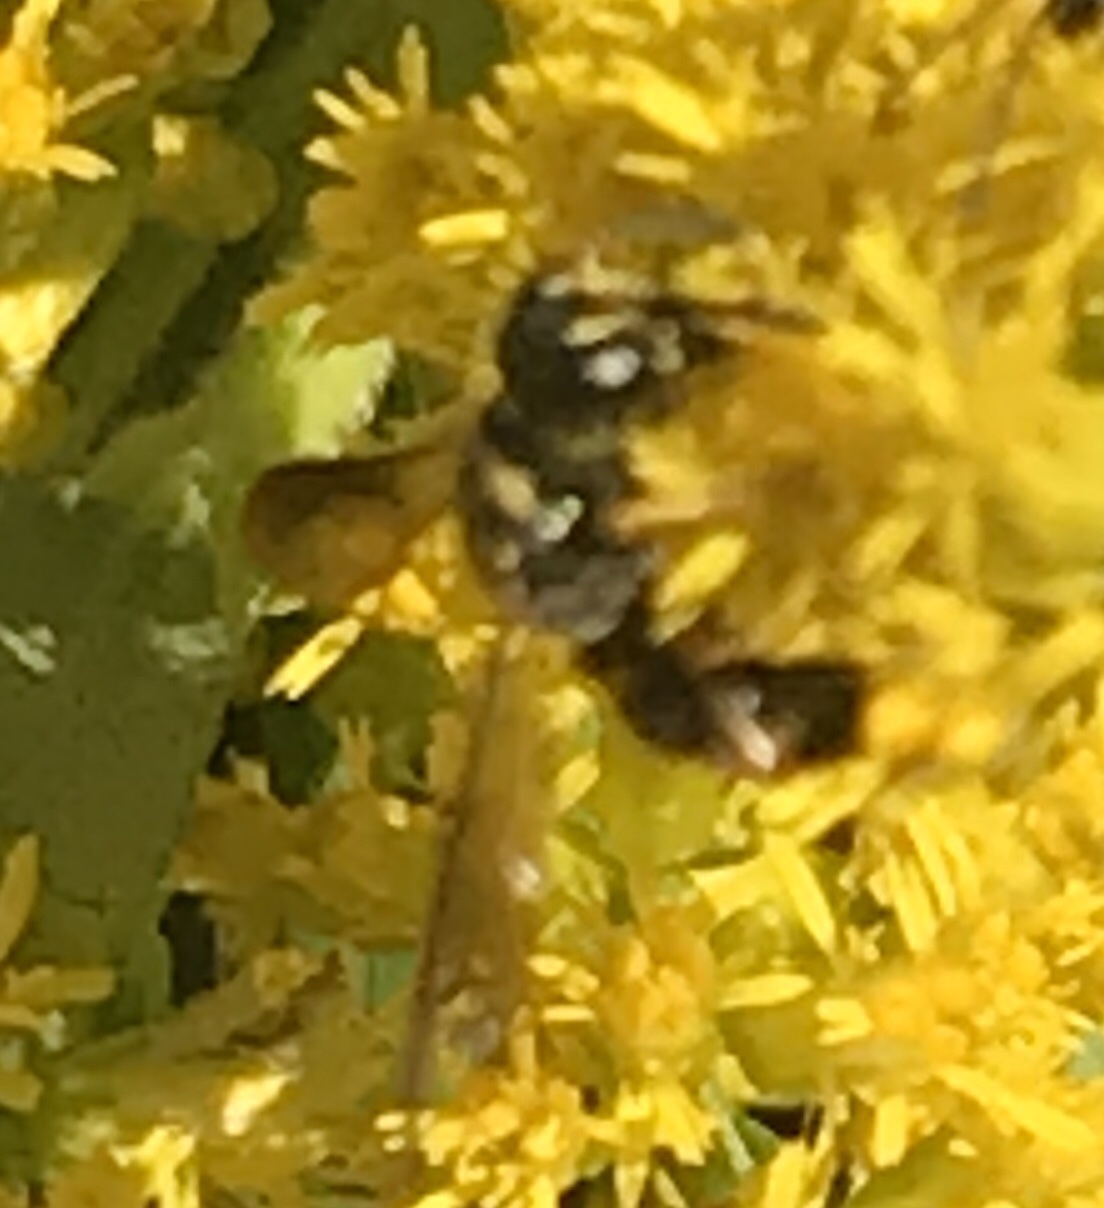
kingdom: Animalia
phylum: Arthropoda
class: Insecta
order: Hymenoptera
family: Crabronidae
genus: Cerceris
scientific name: Cerceris insolita
